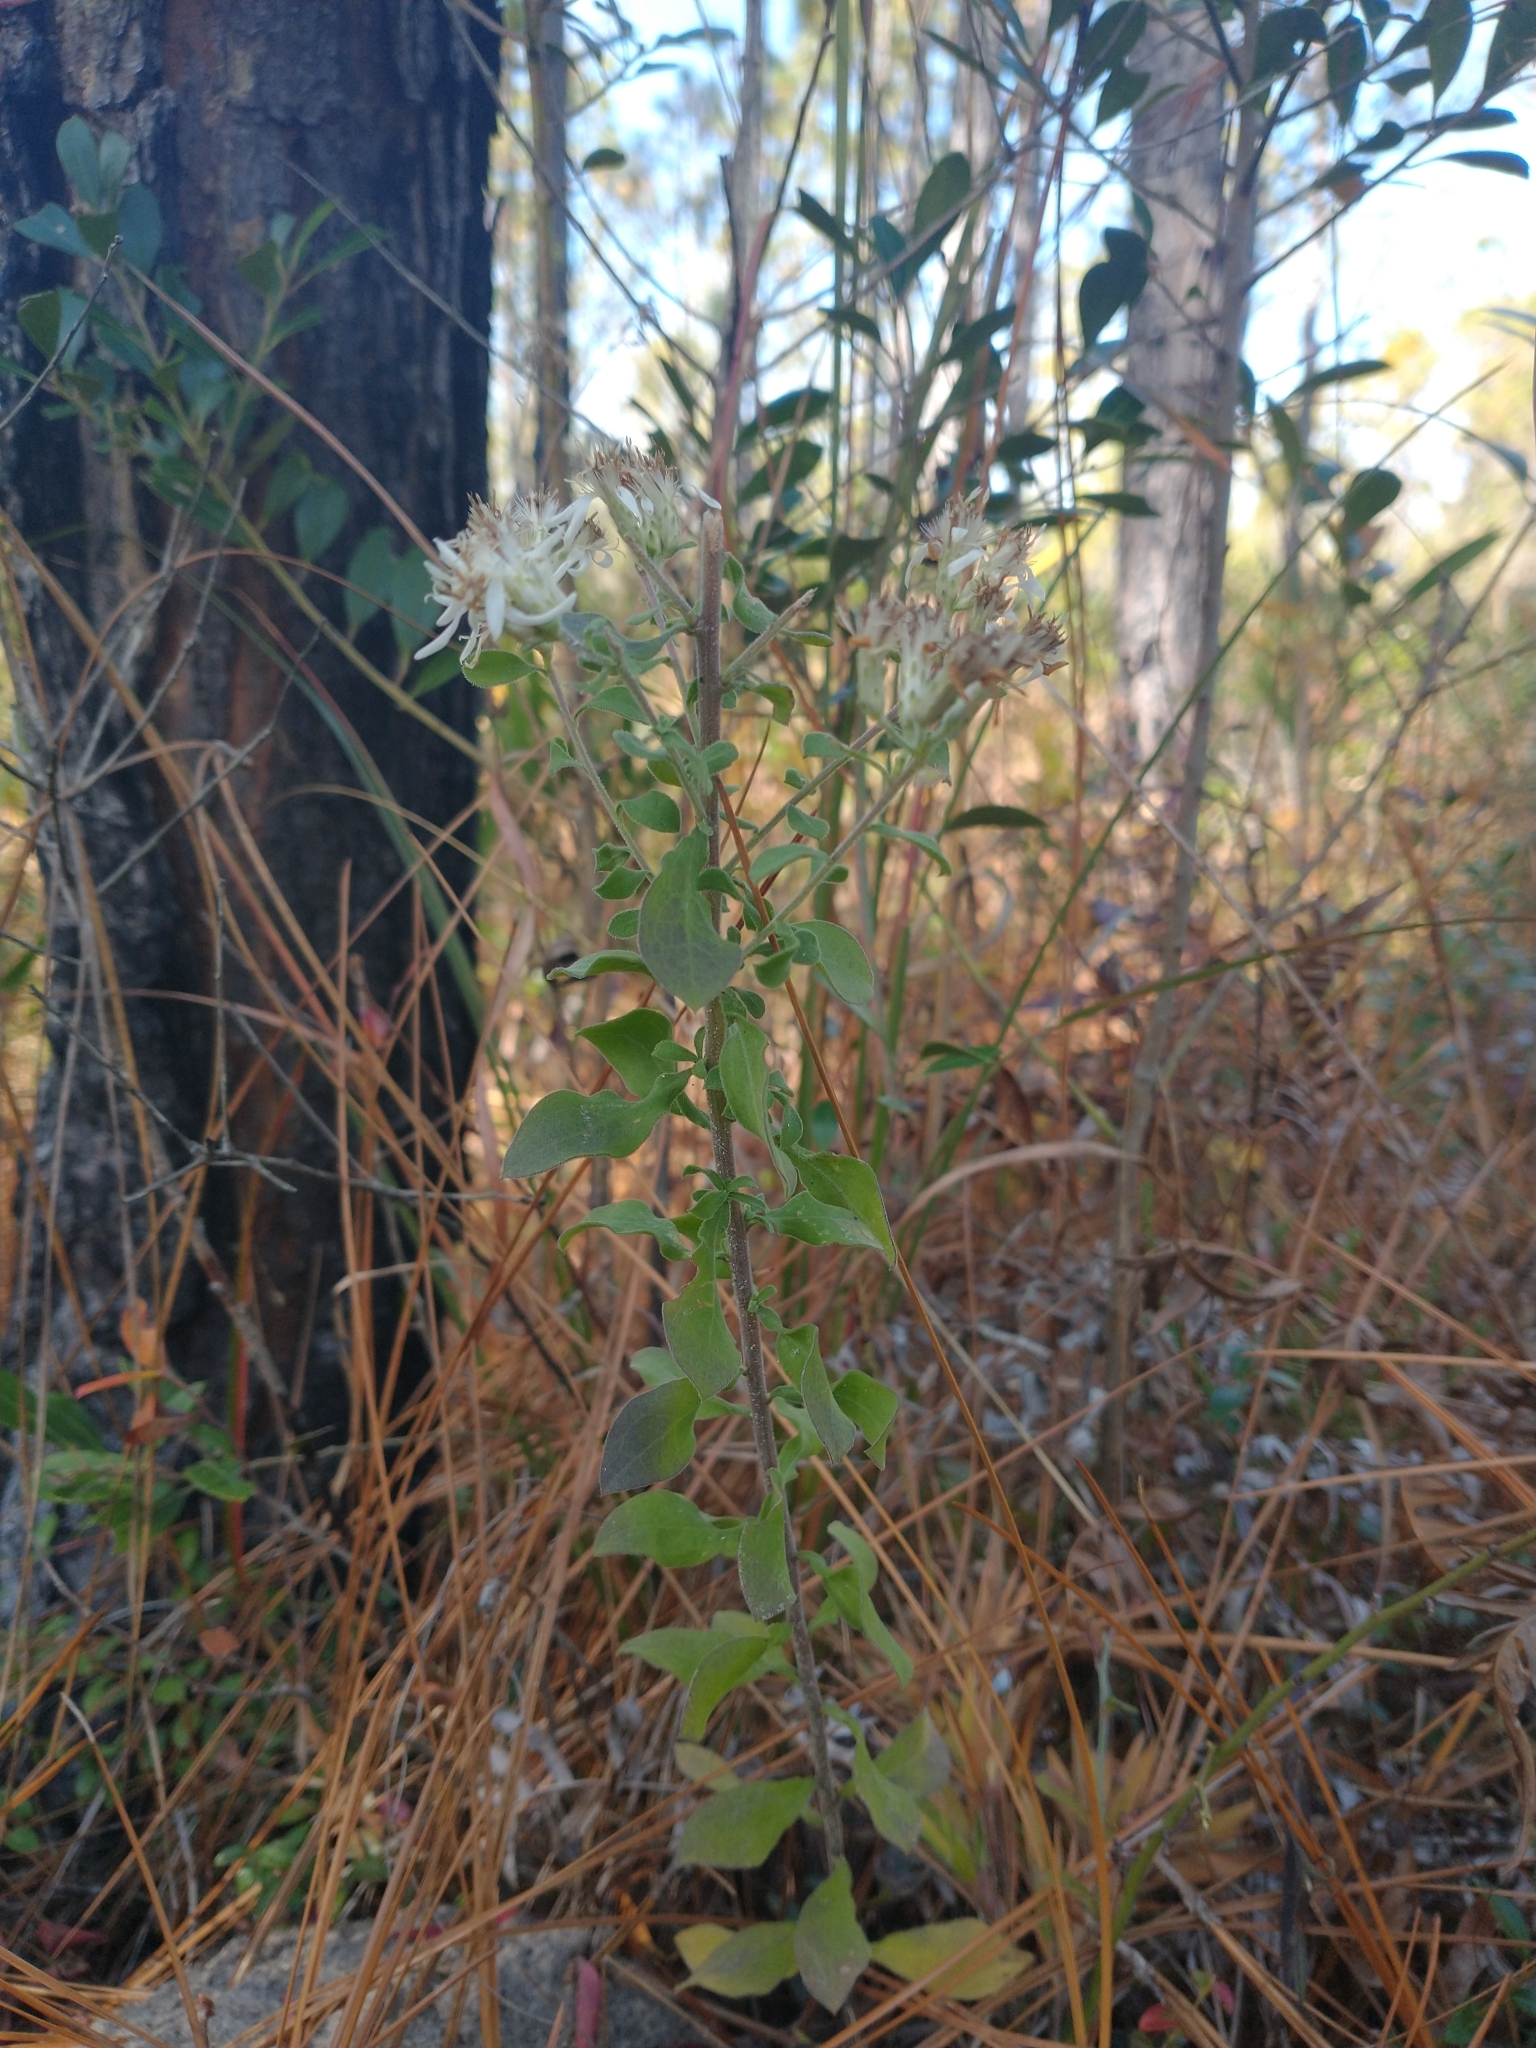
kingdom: Plantae
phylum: Tracheophyta
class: Magnoliopsida
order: Asterales
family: Asteraceae
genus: Sericocarpus
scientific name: Sericocarpus tortifolius
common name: Dixie aster
